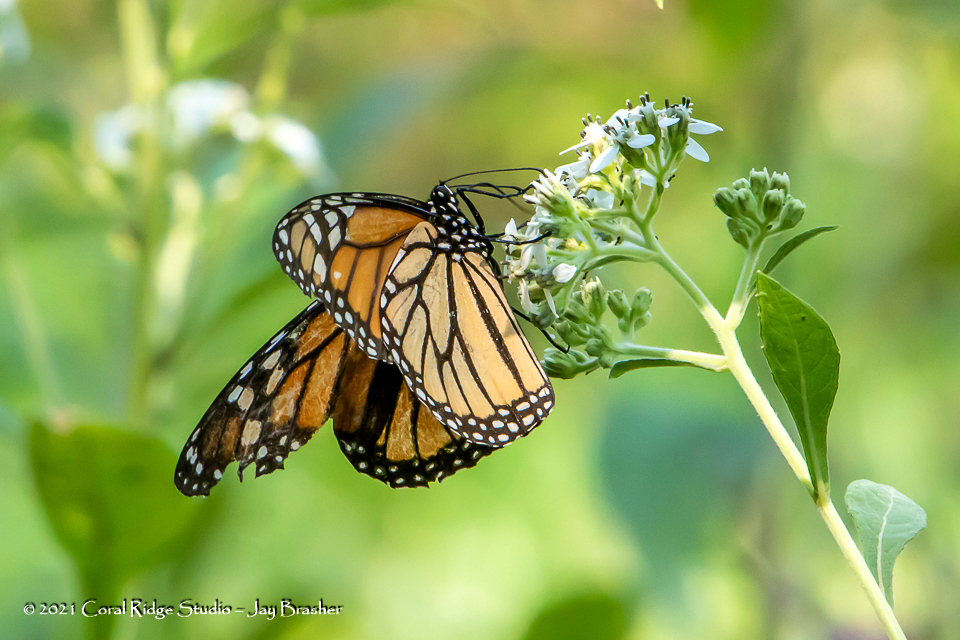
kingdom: Animalia
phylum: Arthropoda
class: Insecta
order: Lepidoptera
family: Nymphalidae
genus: Danaus
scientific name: Danaus plexippus
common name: Monarch
